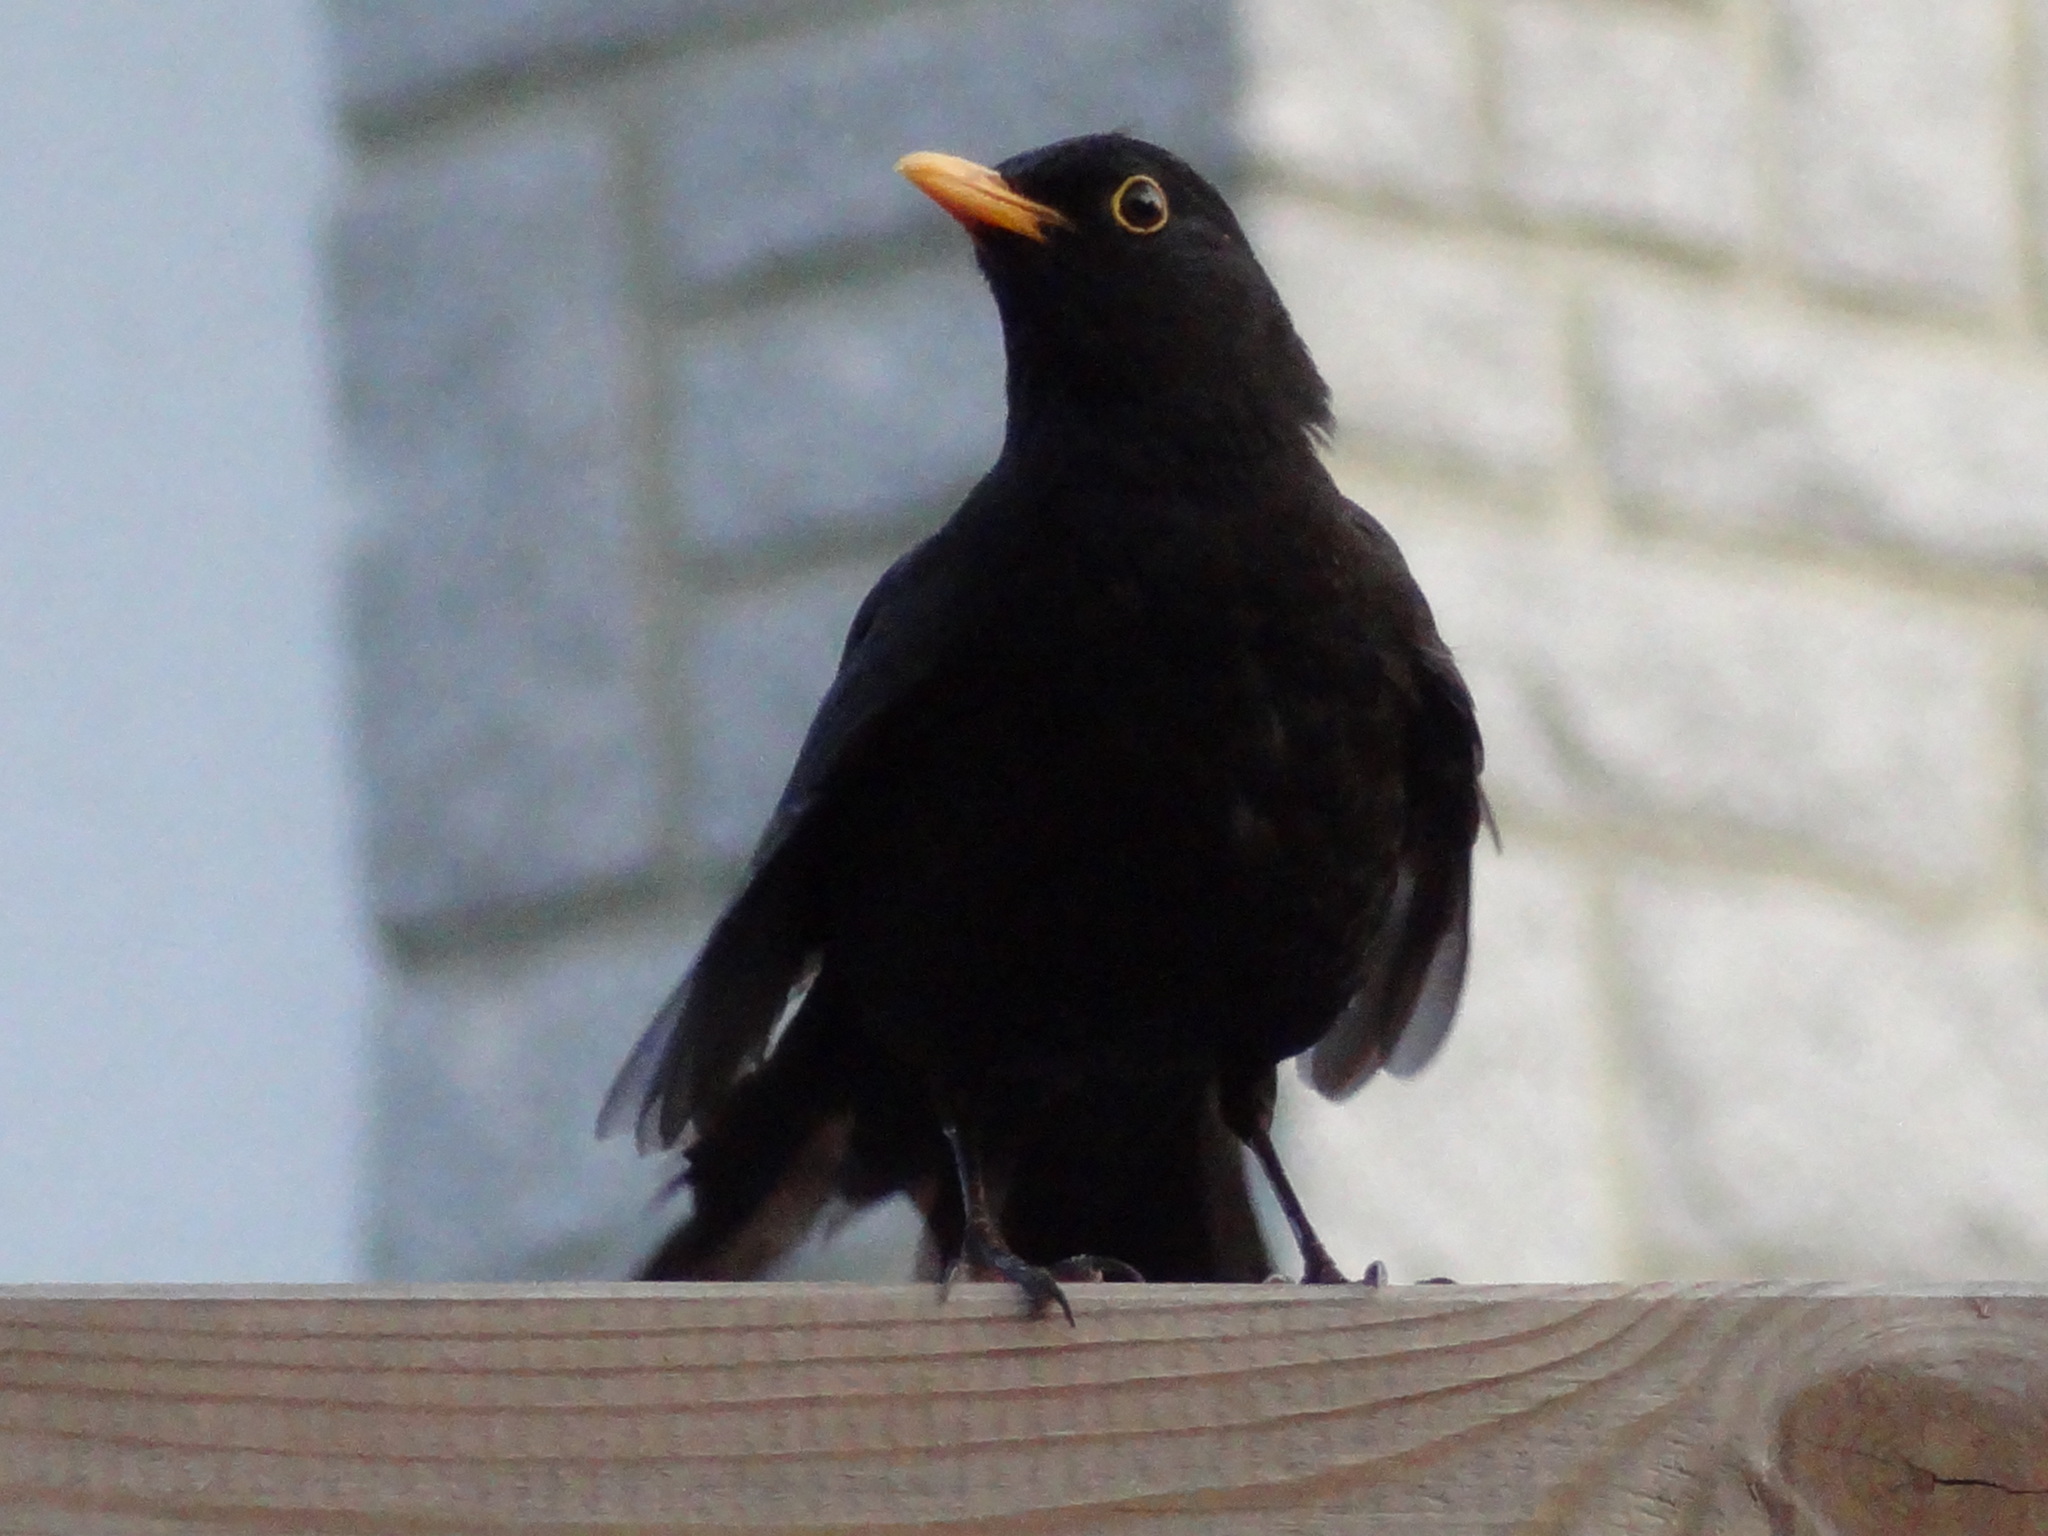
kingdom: Animalia
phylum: Chordata
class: Aves
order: Passeriformes
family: Turdidae
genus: Turdus
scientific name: Turdus merula
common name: Common blackbird
